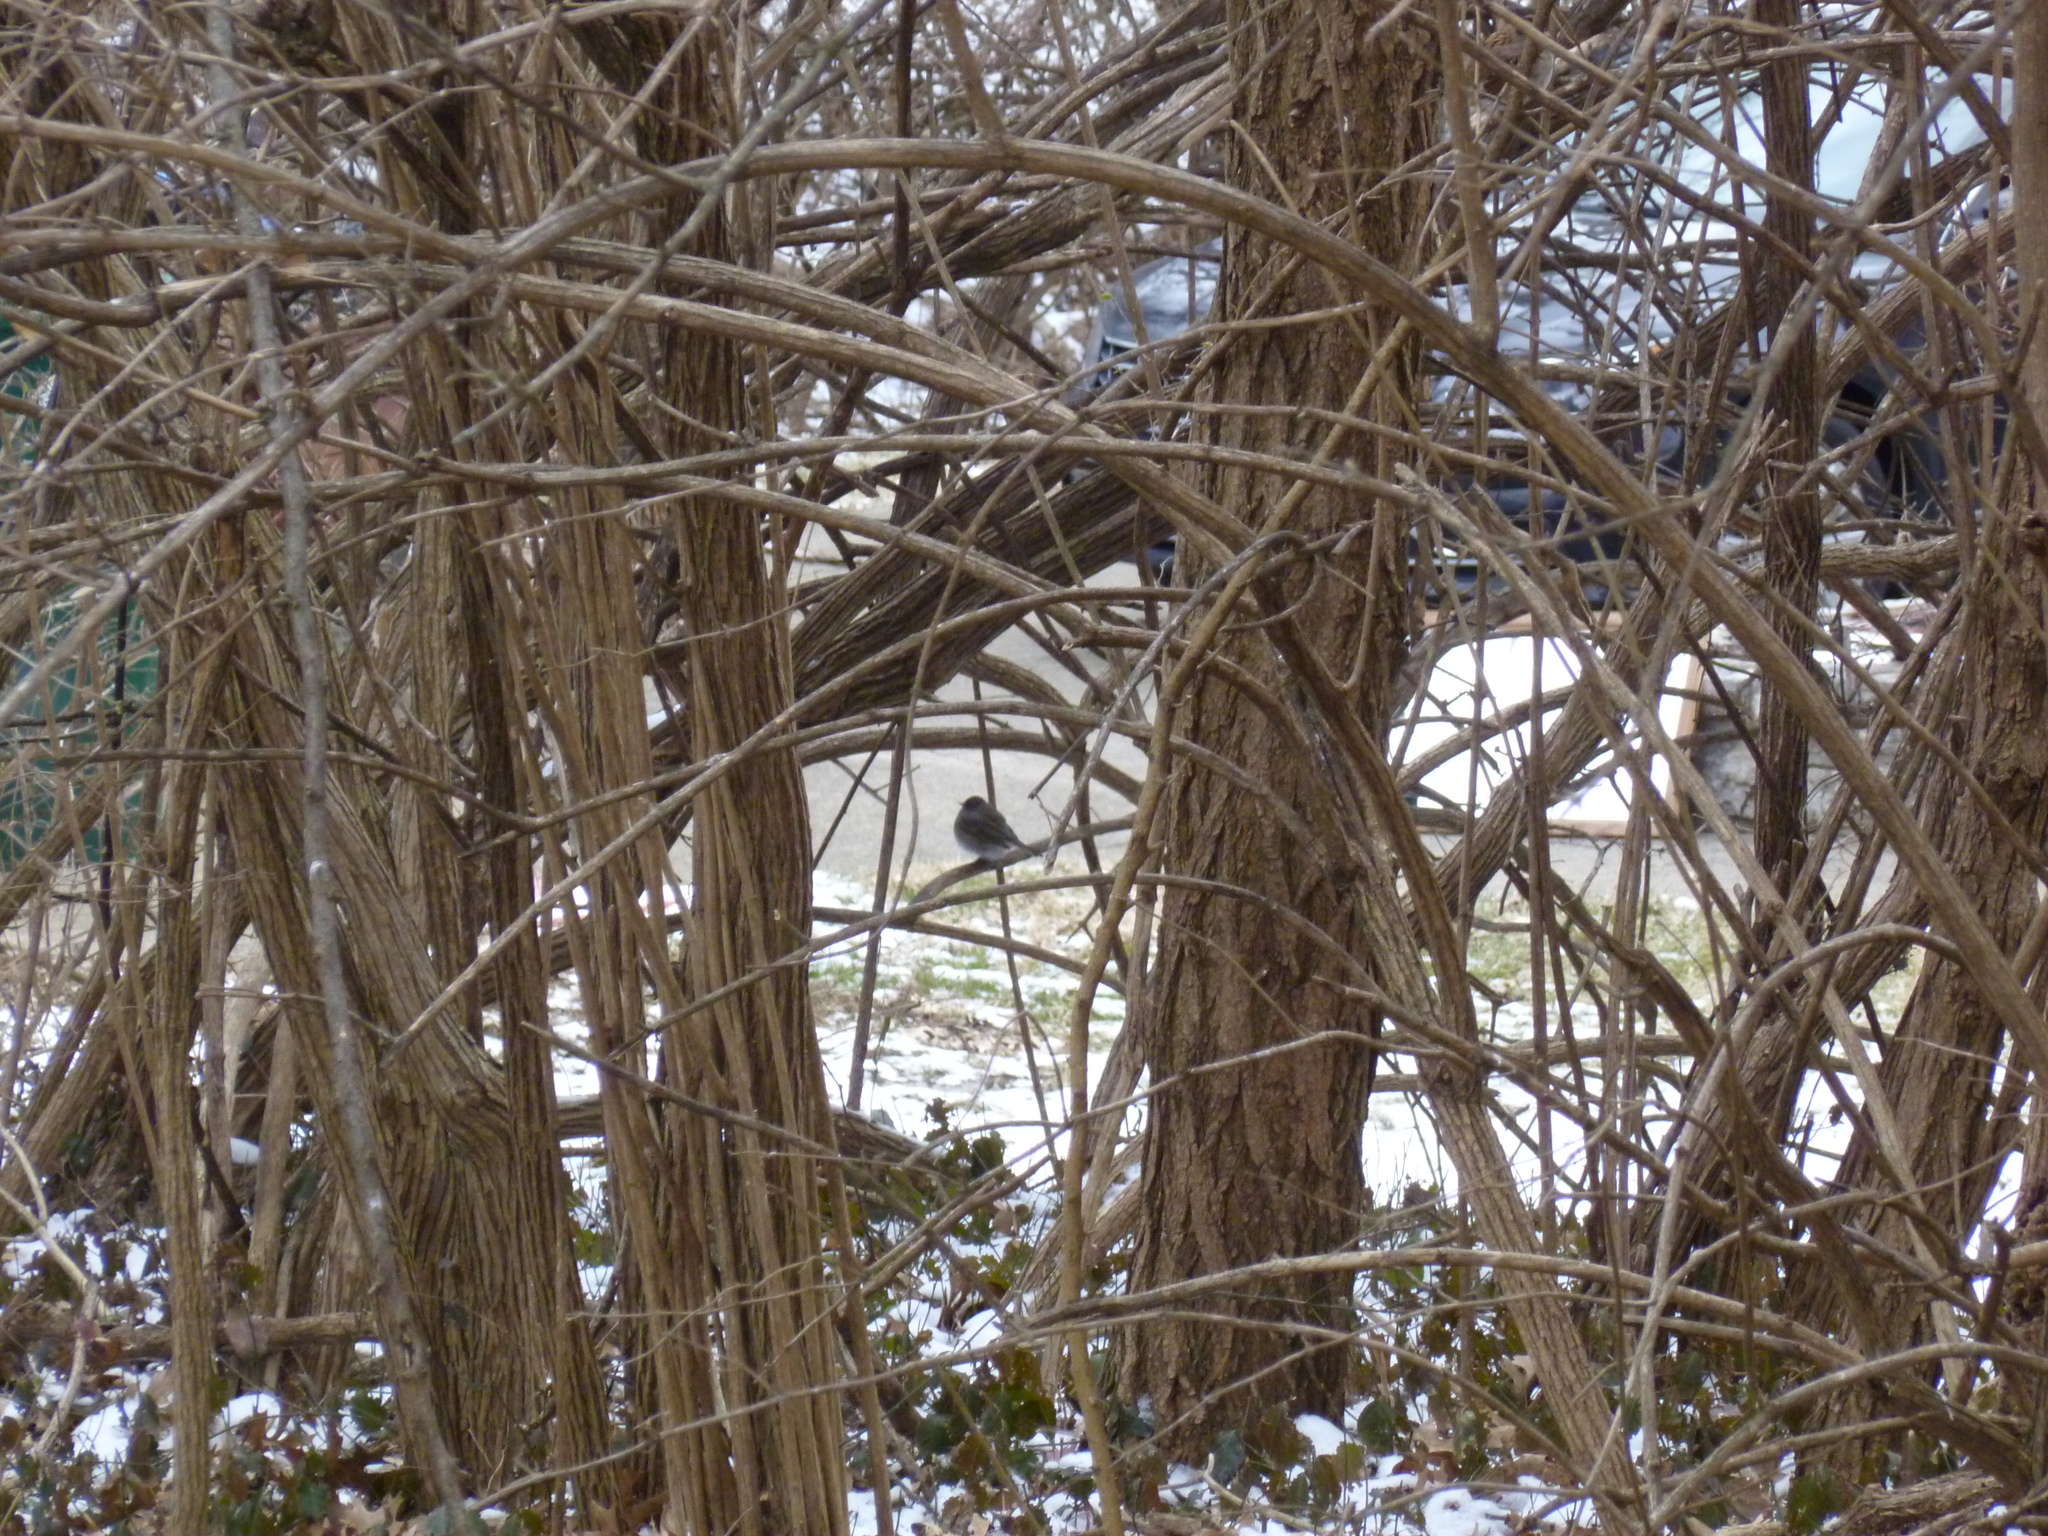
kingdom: Animalia
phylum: Chordata
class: Aves
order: Passeriformes
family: Passerellidae
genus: Junco
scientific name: Junco hyemalis
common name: Dark-eyed junco
